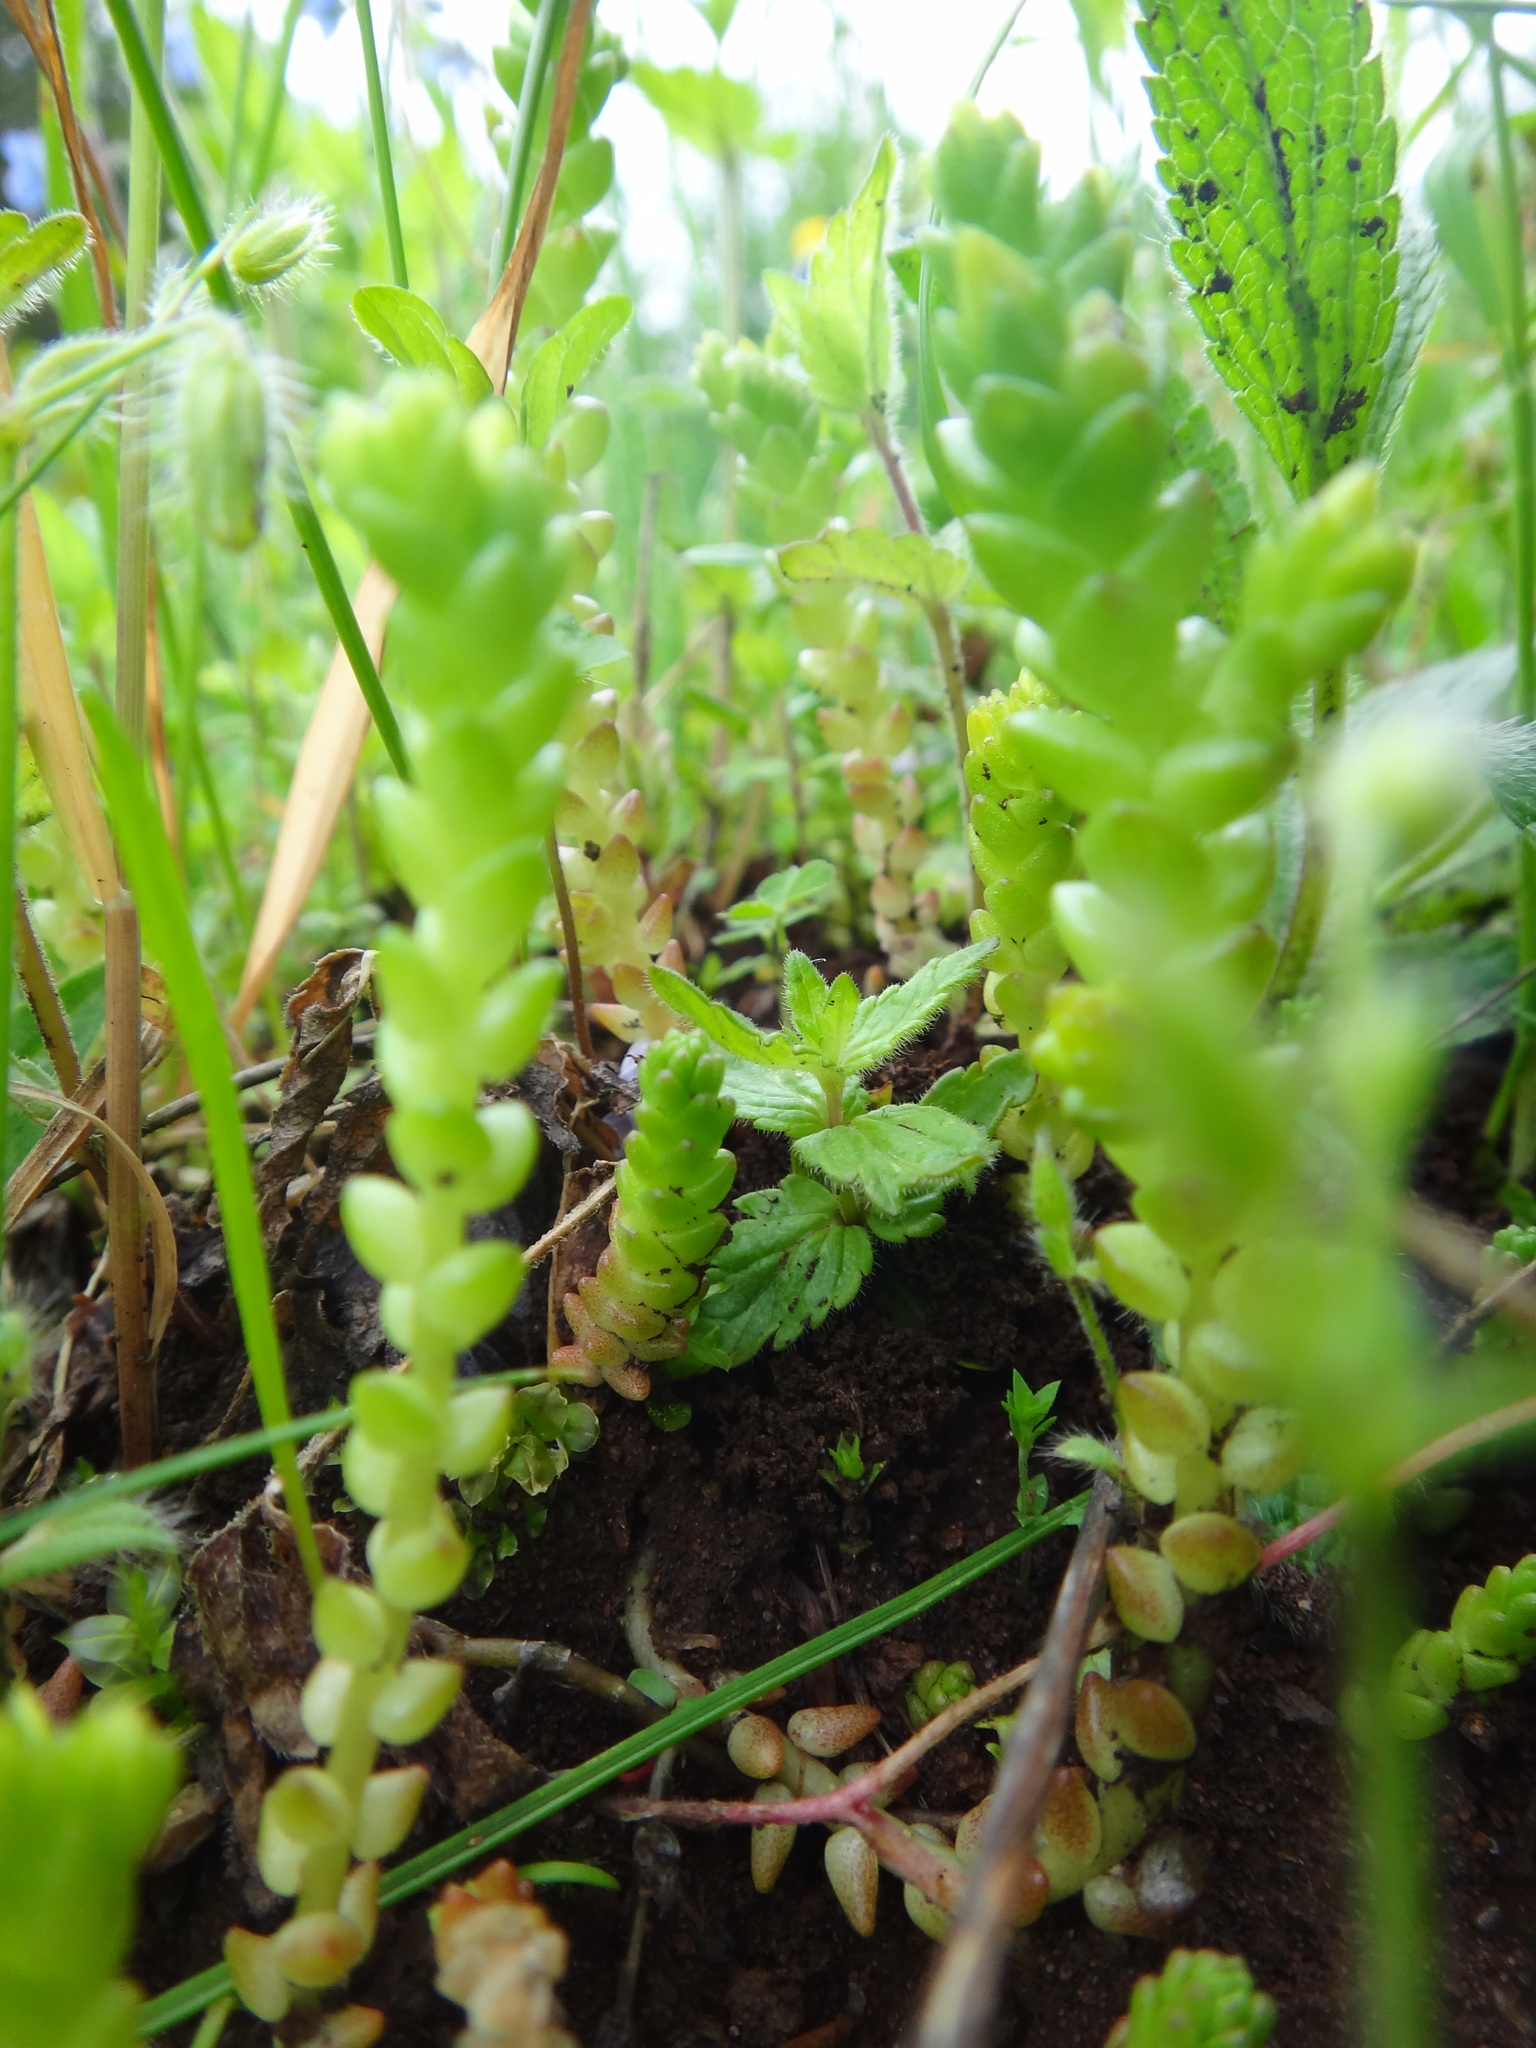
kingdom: Plantae
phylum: Tracheophyta
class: Magnoliopsida
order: Saxifragales
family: Crassulaceae
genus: Sedum
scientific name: Sedum acre
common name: Biting stonecrop
